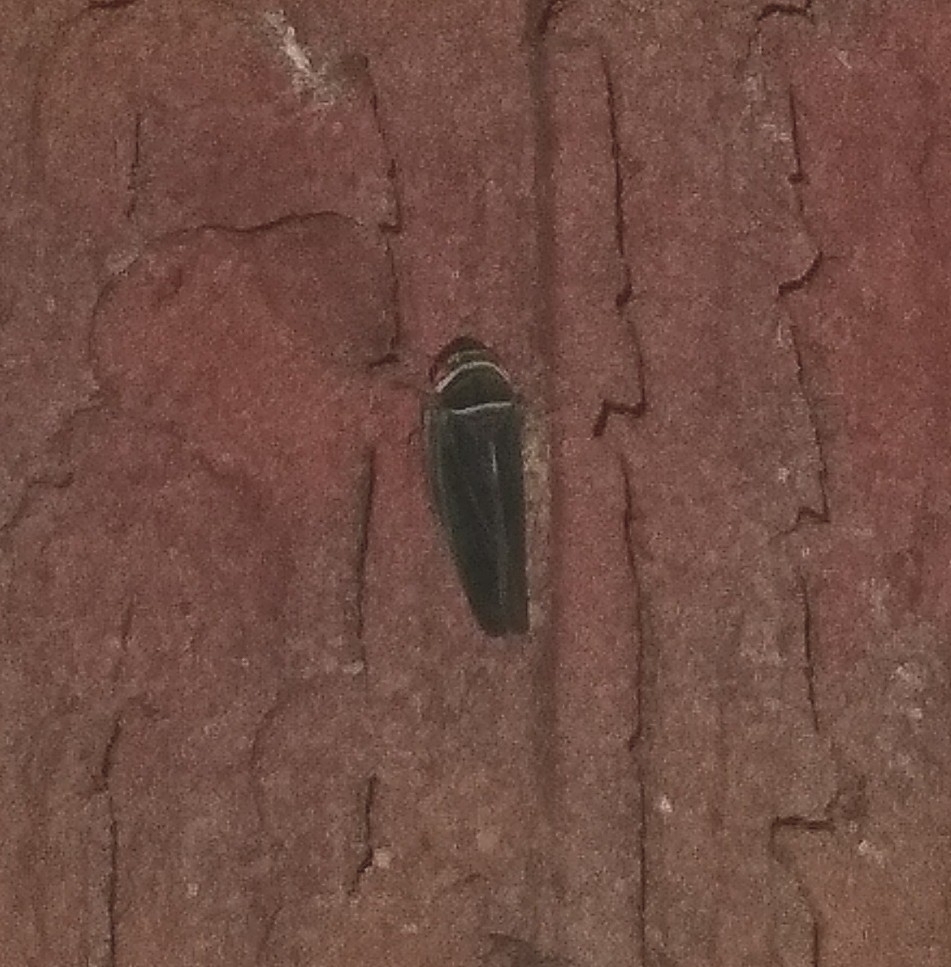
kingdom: Animalia
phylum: Arthropoda
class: Insecta
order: Hemiptera
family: Cicadellidae
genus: Tylozygus
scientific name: Tylozygus bifidus
